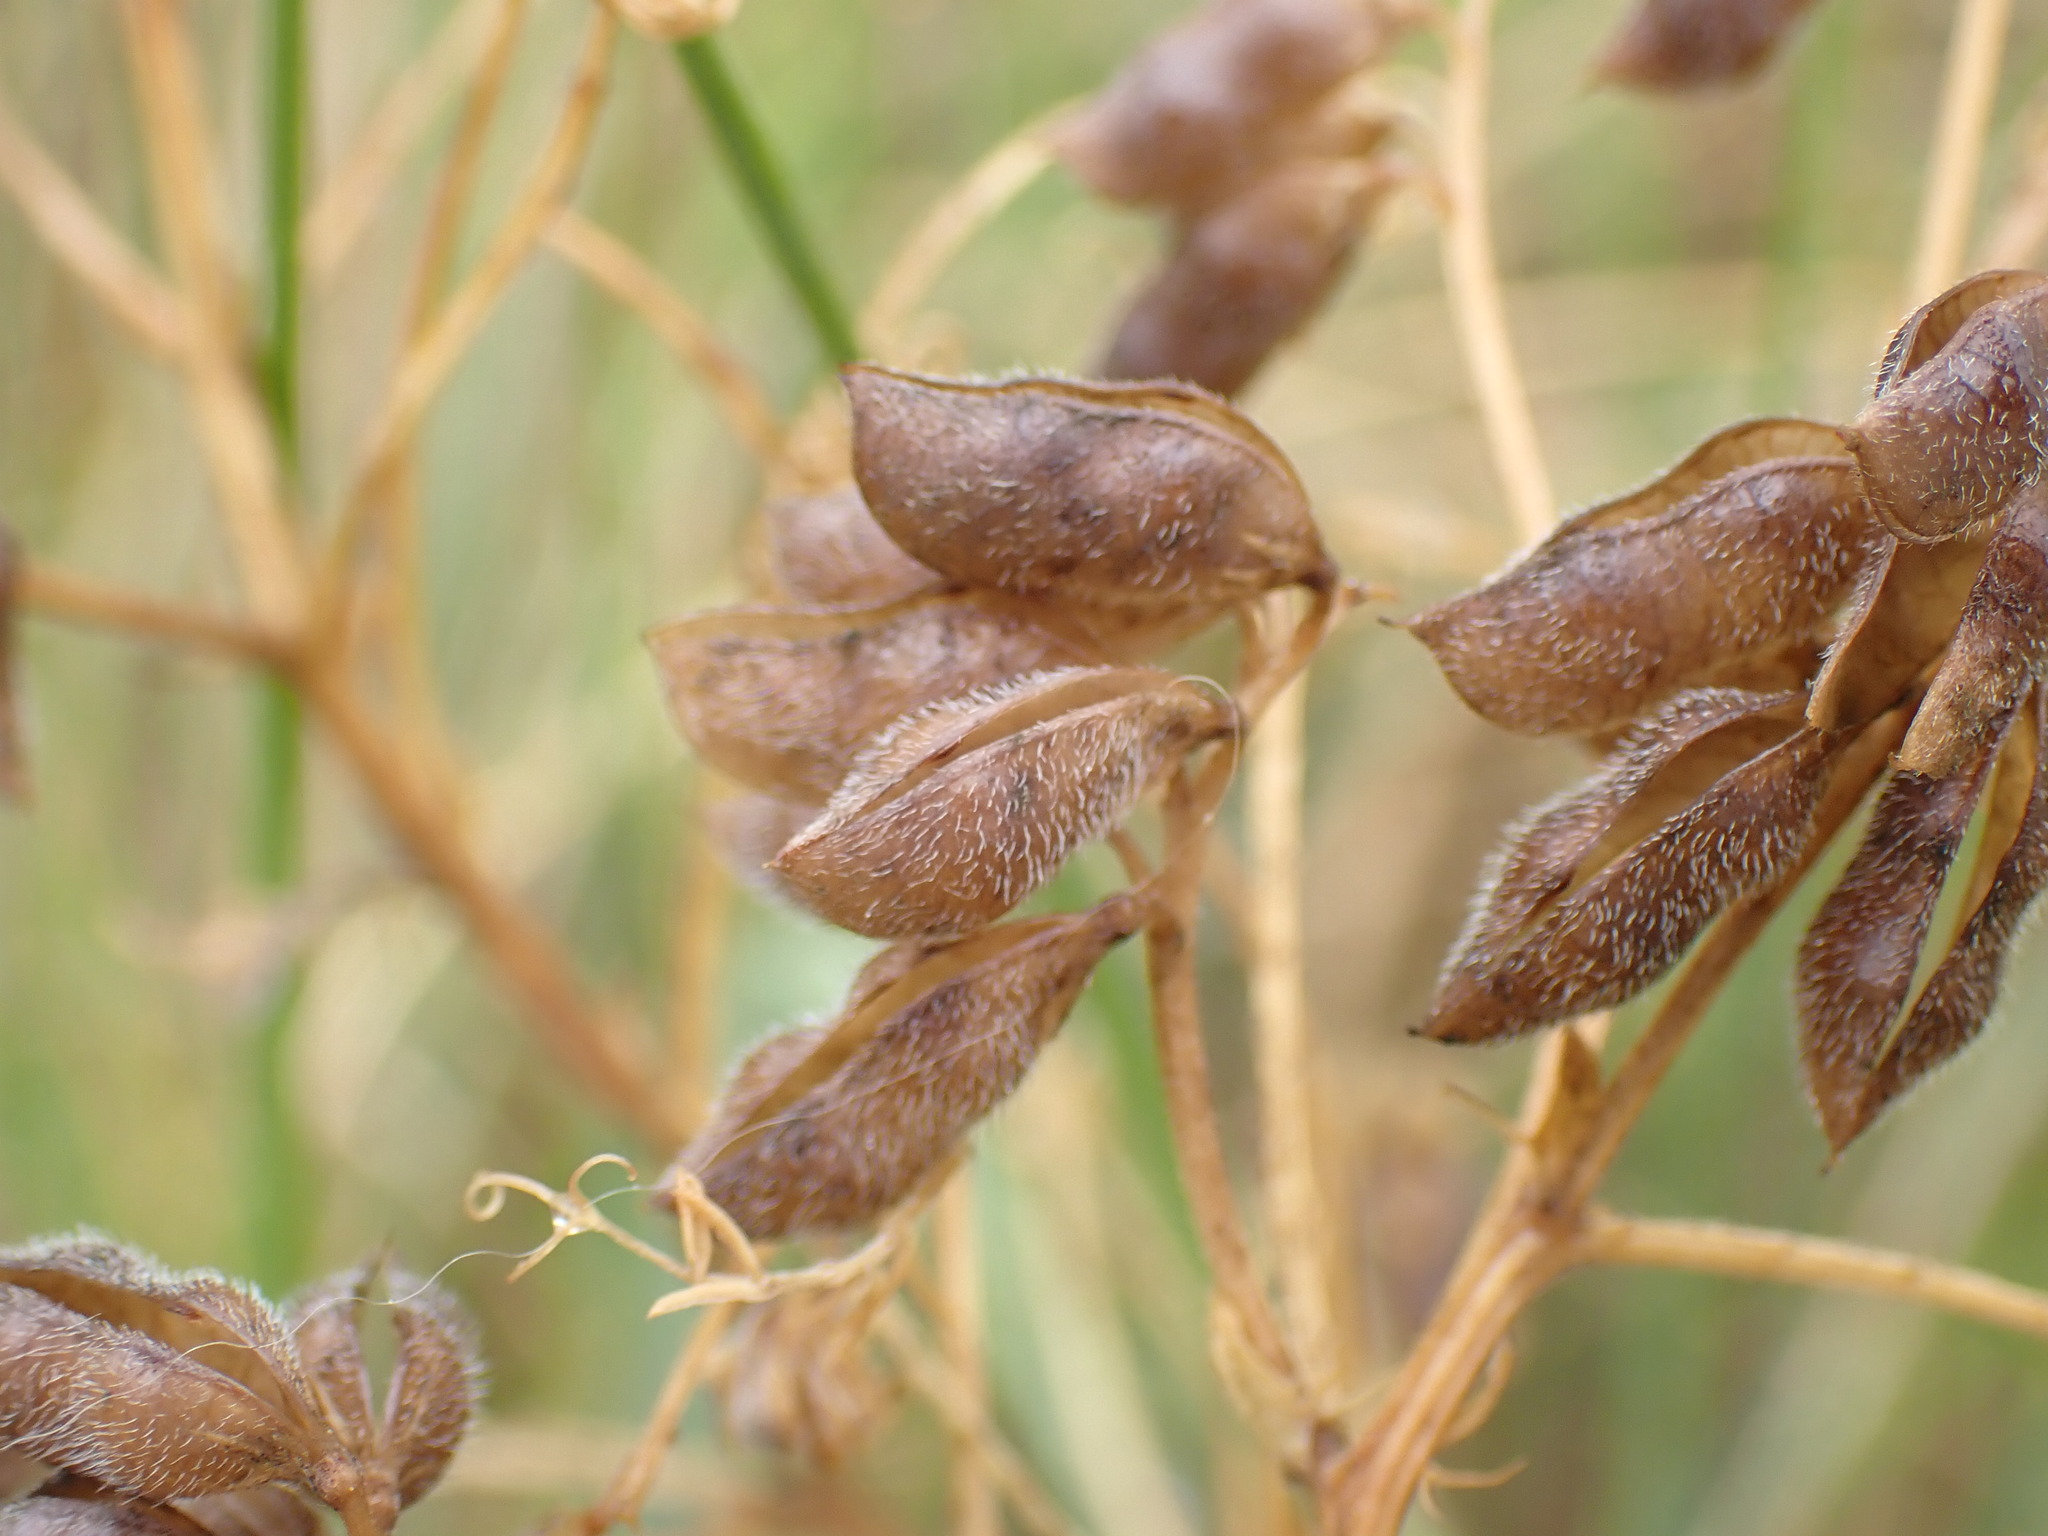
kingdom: Plantae
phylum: Tracheophyta
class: Magnoliopsida
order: Fabales
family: Fabaceae
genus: Vicia
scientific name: Vicia hirsuta
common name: Tiny vetch
